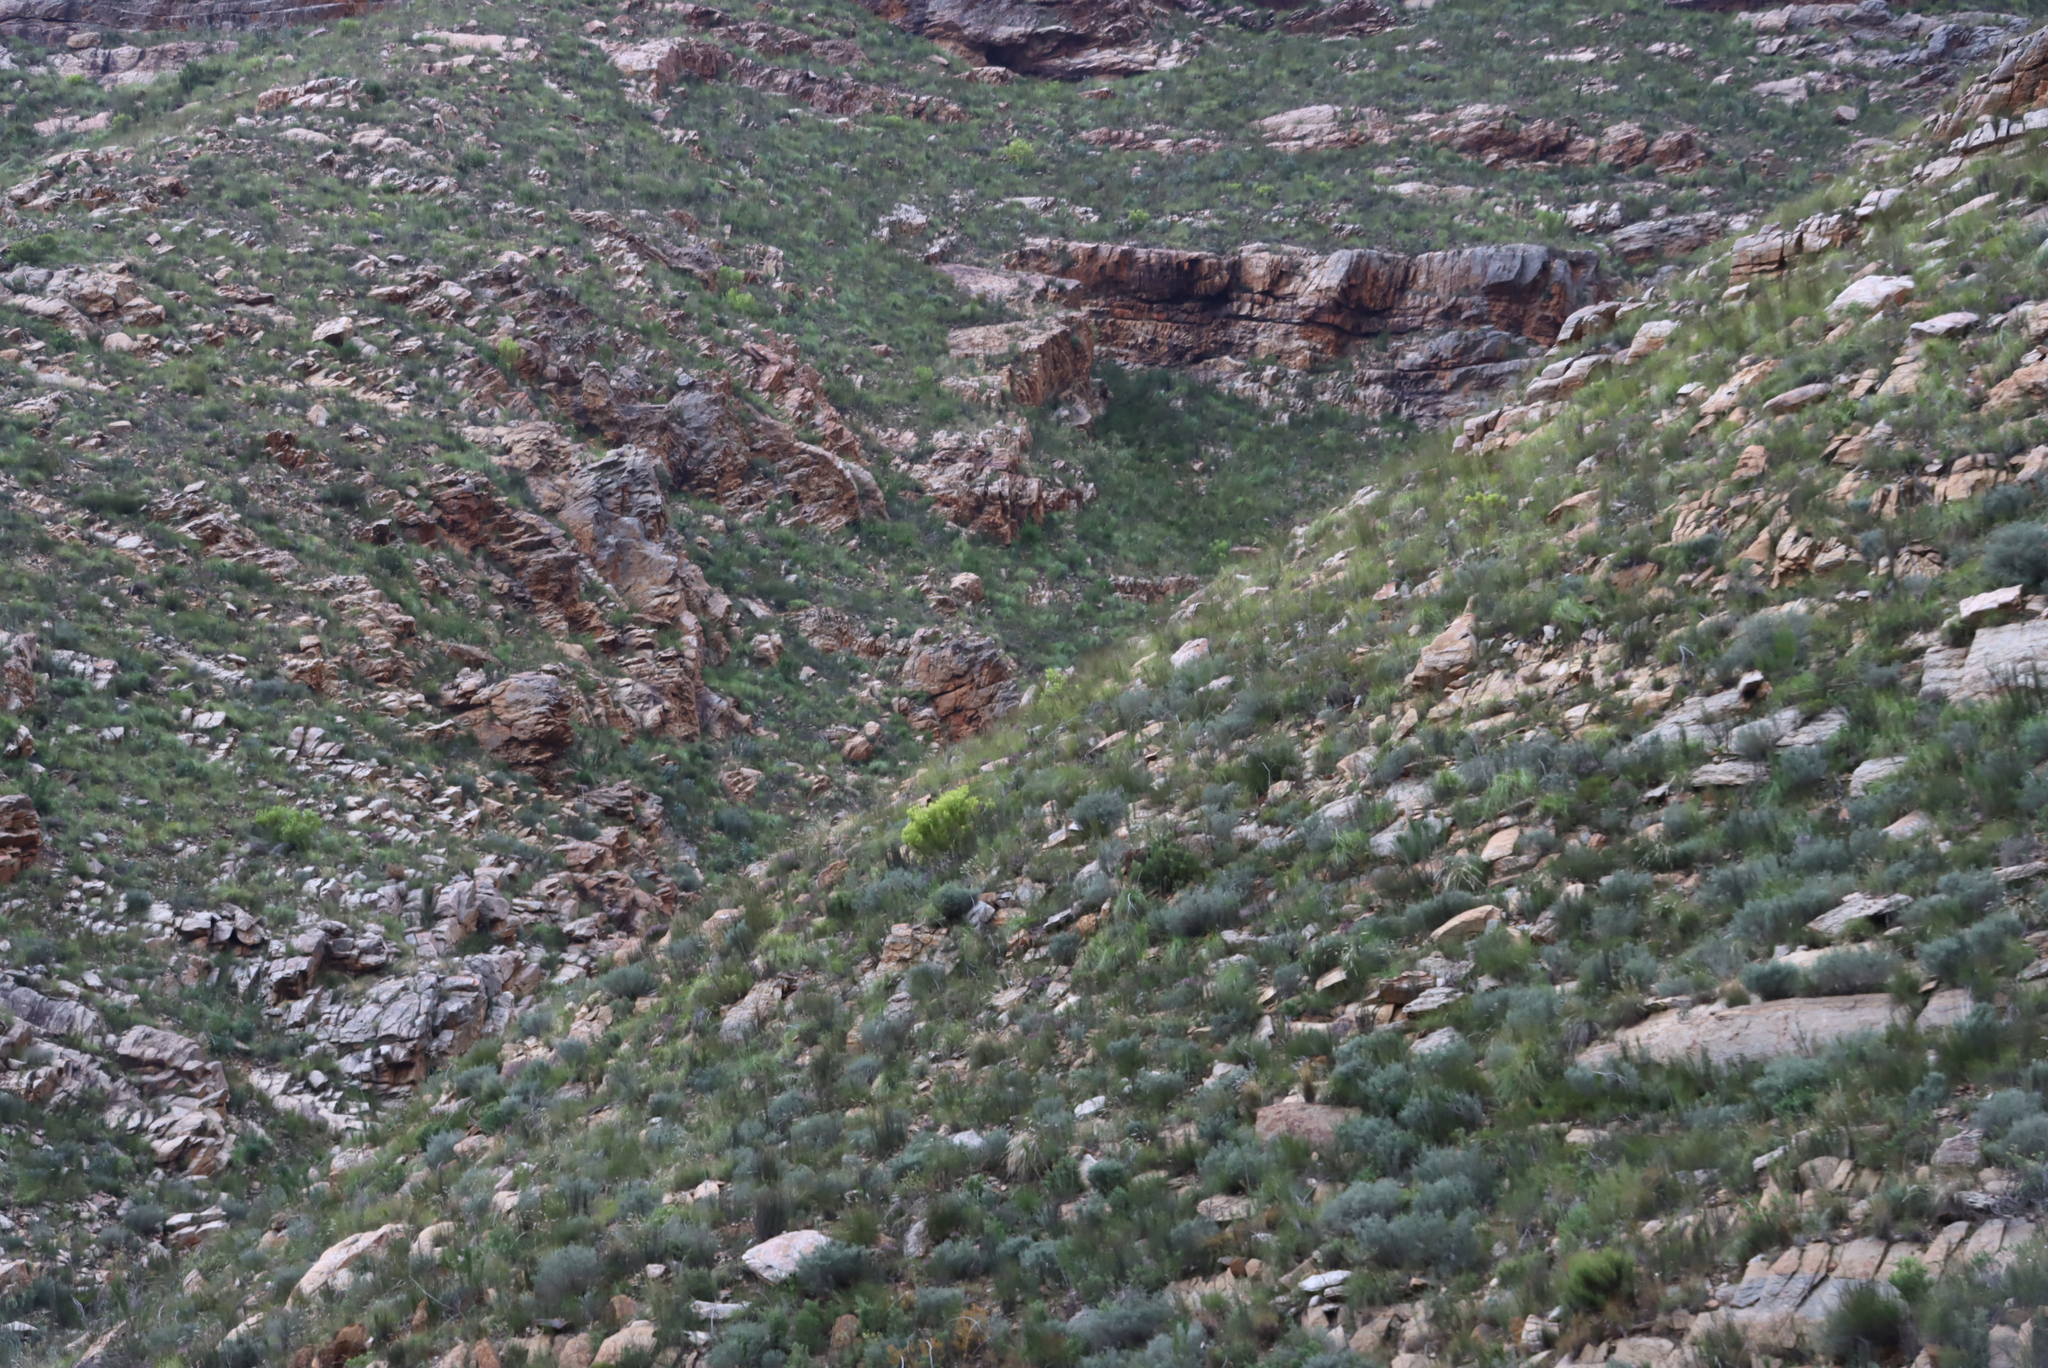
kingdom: Plantae
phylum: Tracheophyta
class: Magnoliopsida
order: Proteales
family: Proteaceae
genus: Leucadendron
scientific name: Leucadendron salignum
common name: Common sunshine conebush
